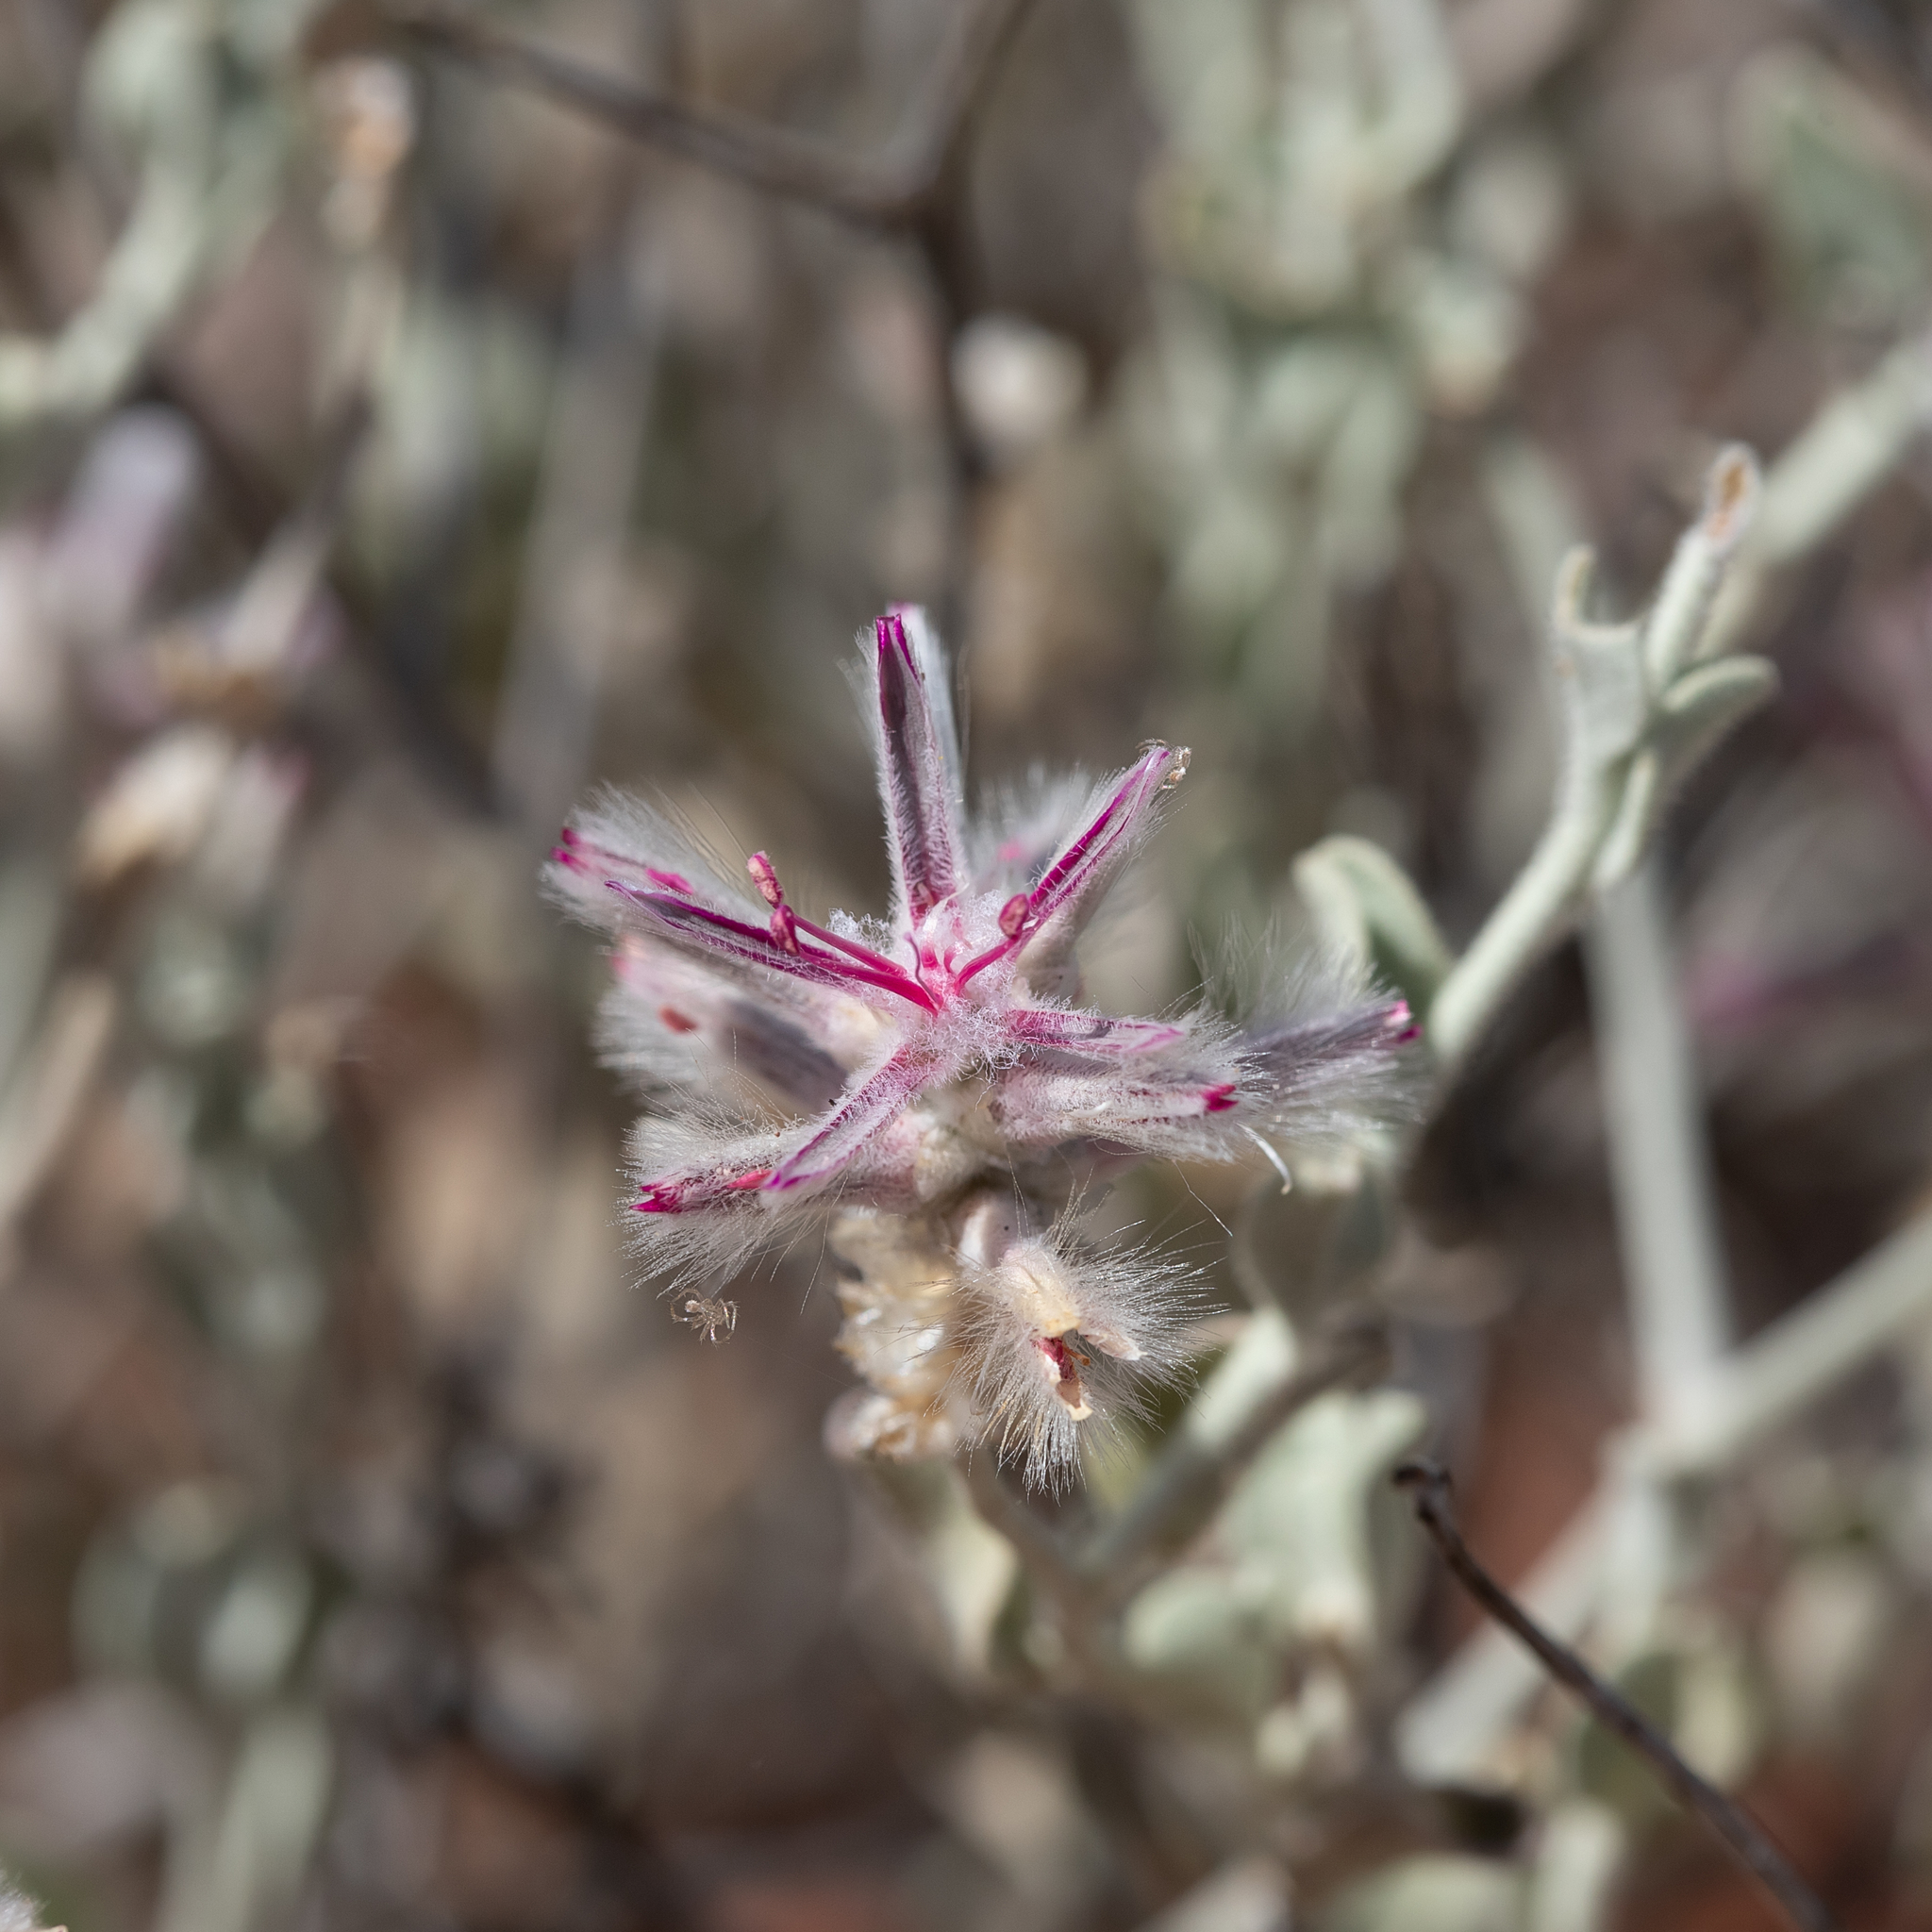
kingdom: Plantae
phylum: Tracheophyta
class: Magnoliopsida
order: Caryophyllales
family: Amaranthaceae
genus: Ptilotus
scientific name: Ptilotus sessilifolius
